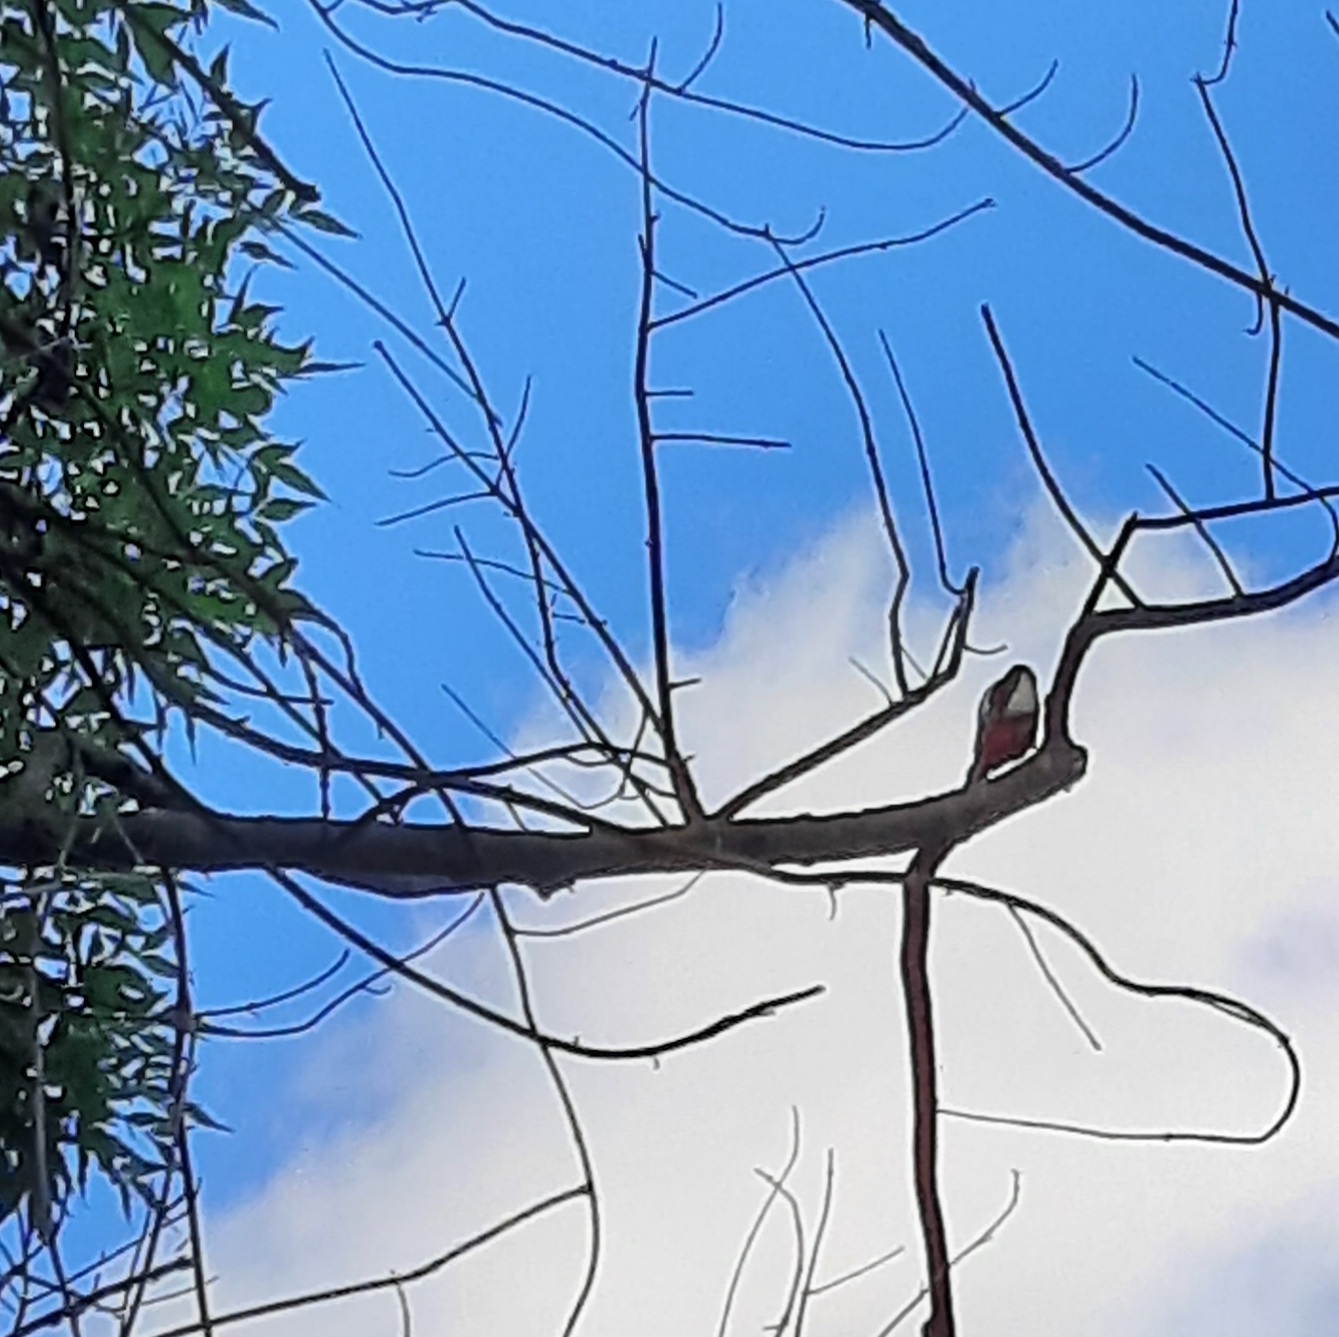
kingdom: Animalia
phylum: Chordata
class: Aves
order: Piciformes
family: Picidae
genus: Dendrocopos
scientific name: Dendrocopos major
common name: Great spotted woodpecker
